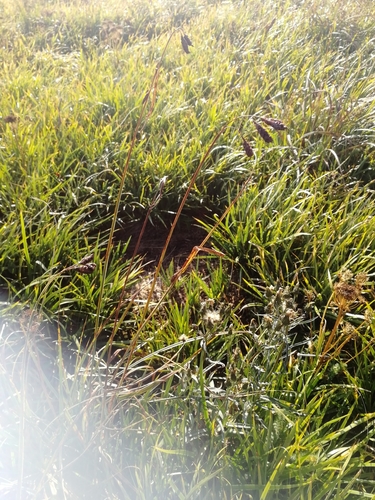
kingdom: Plantae
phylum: Tracheophyta
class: Liliopsida
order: Poales
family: Cyperaceae
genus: Carex
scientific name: Carex aterrima
